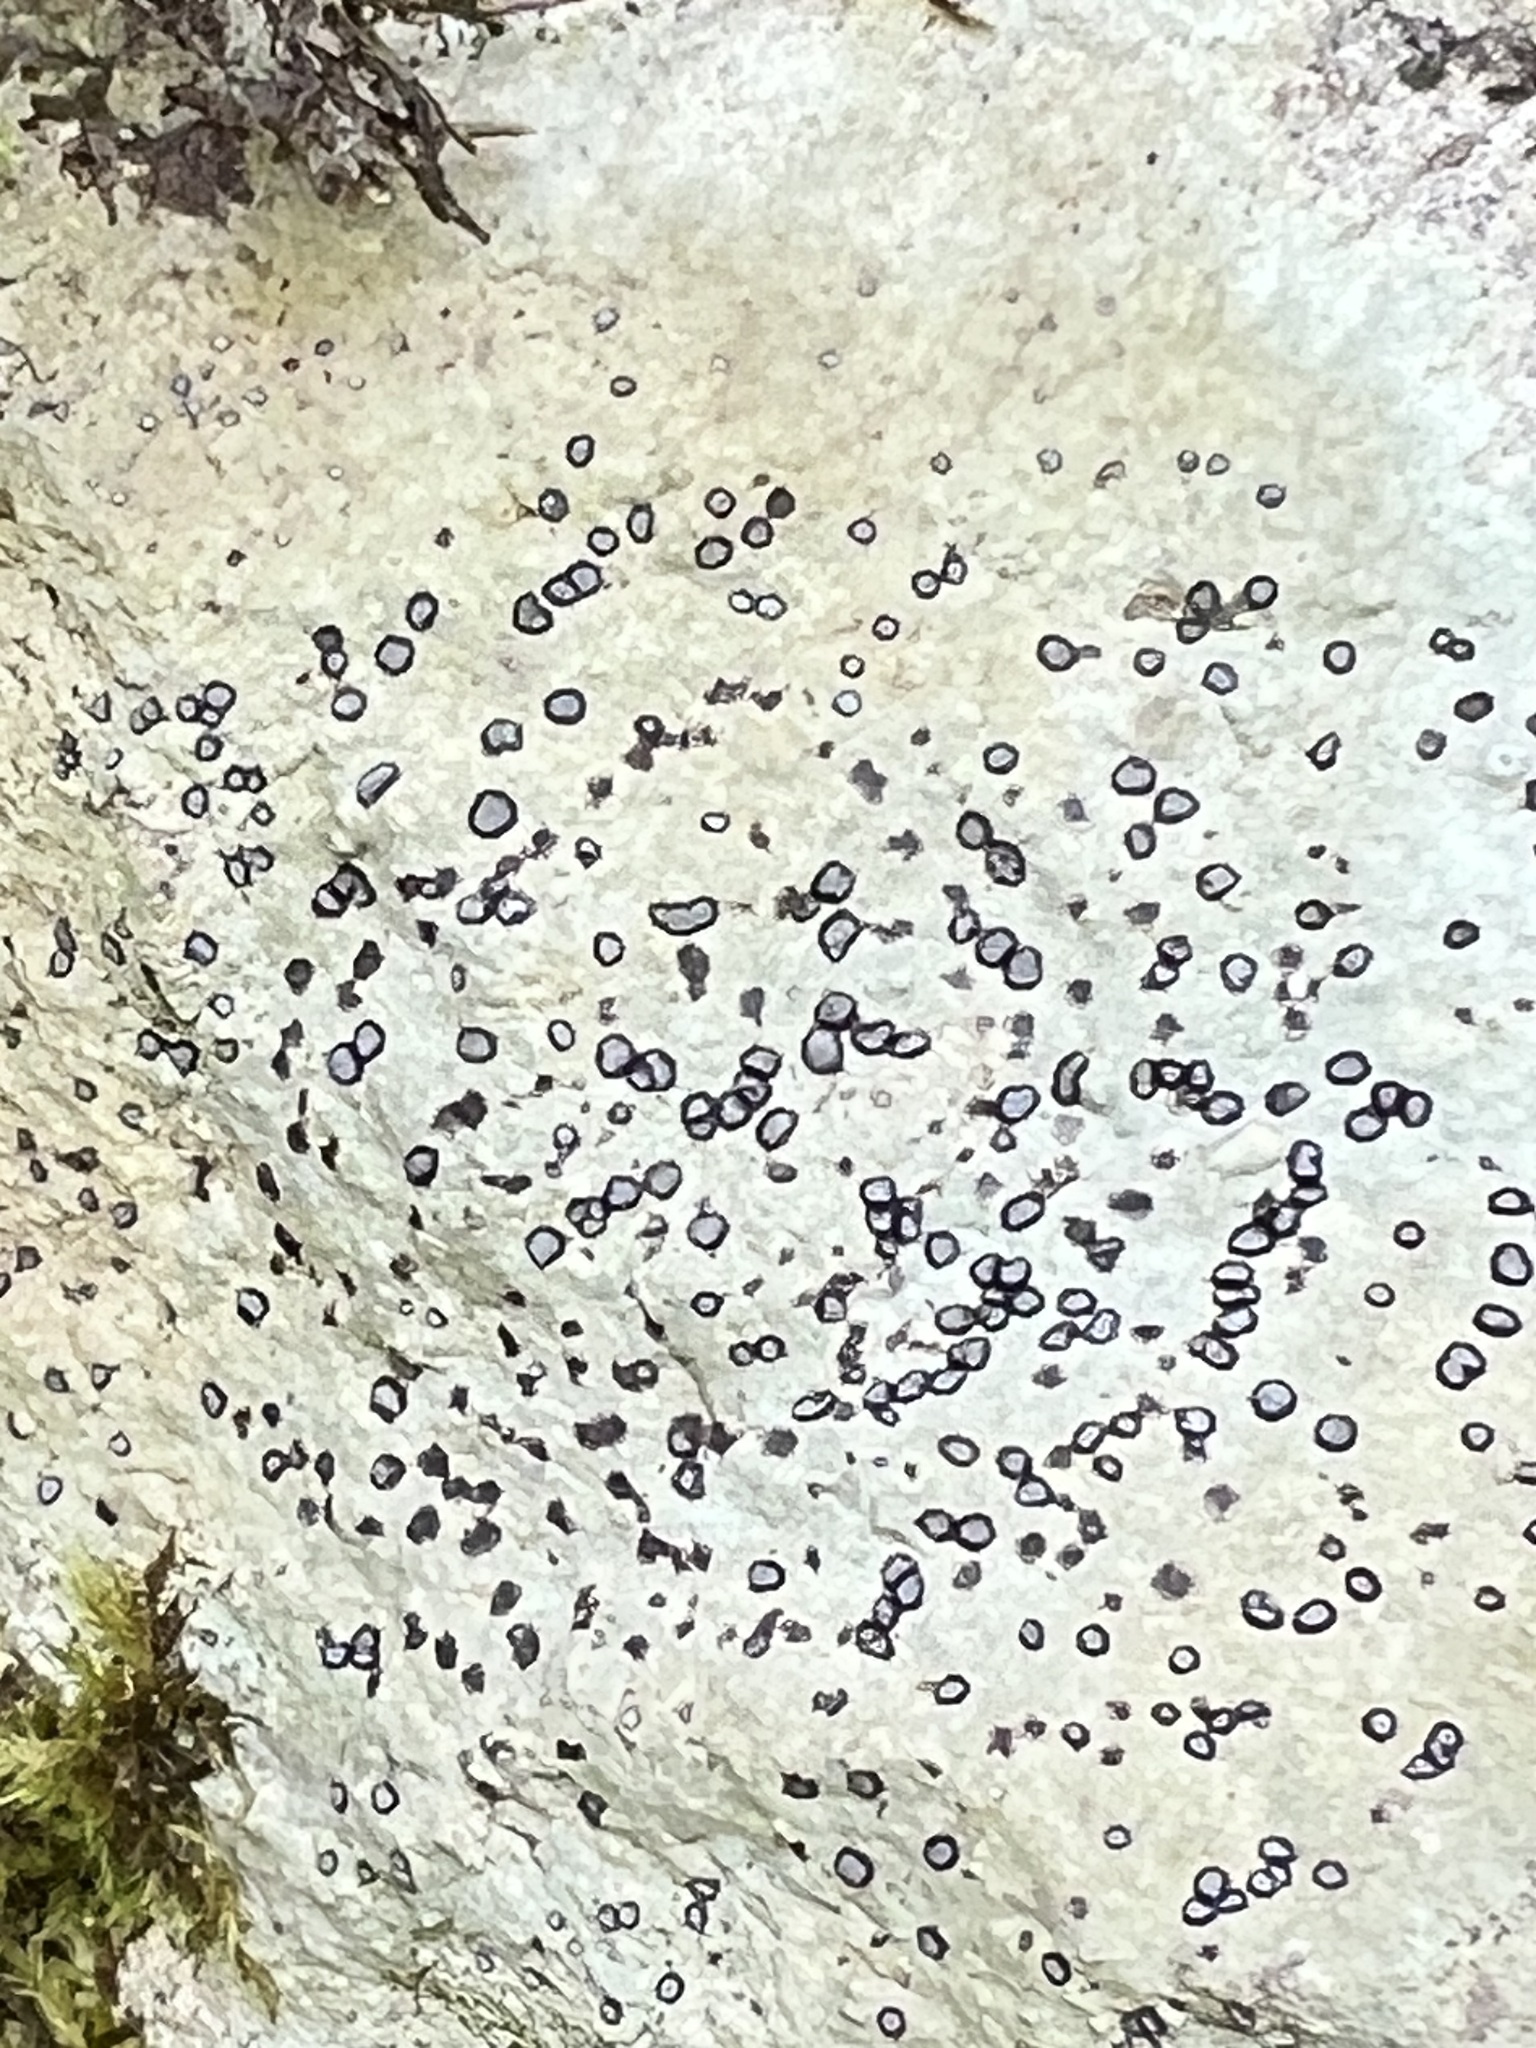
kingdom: Fungi
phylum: Ascomycota
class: Lecanoromycetes
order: Lecideales
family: Lecideaceae
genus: Porpidia
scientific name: Porpidia albocaerulescens
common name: Smokey-eyed boulder lichen
